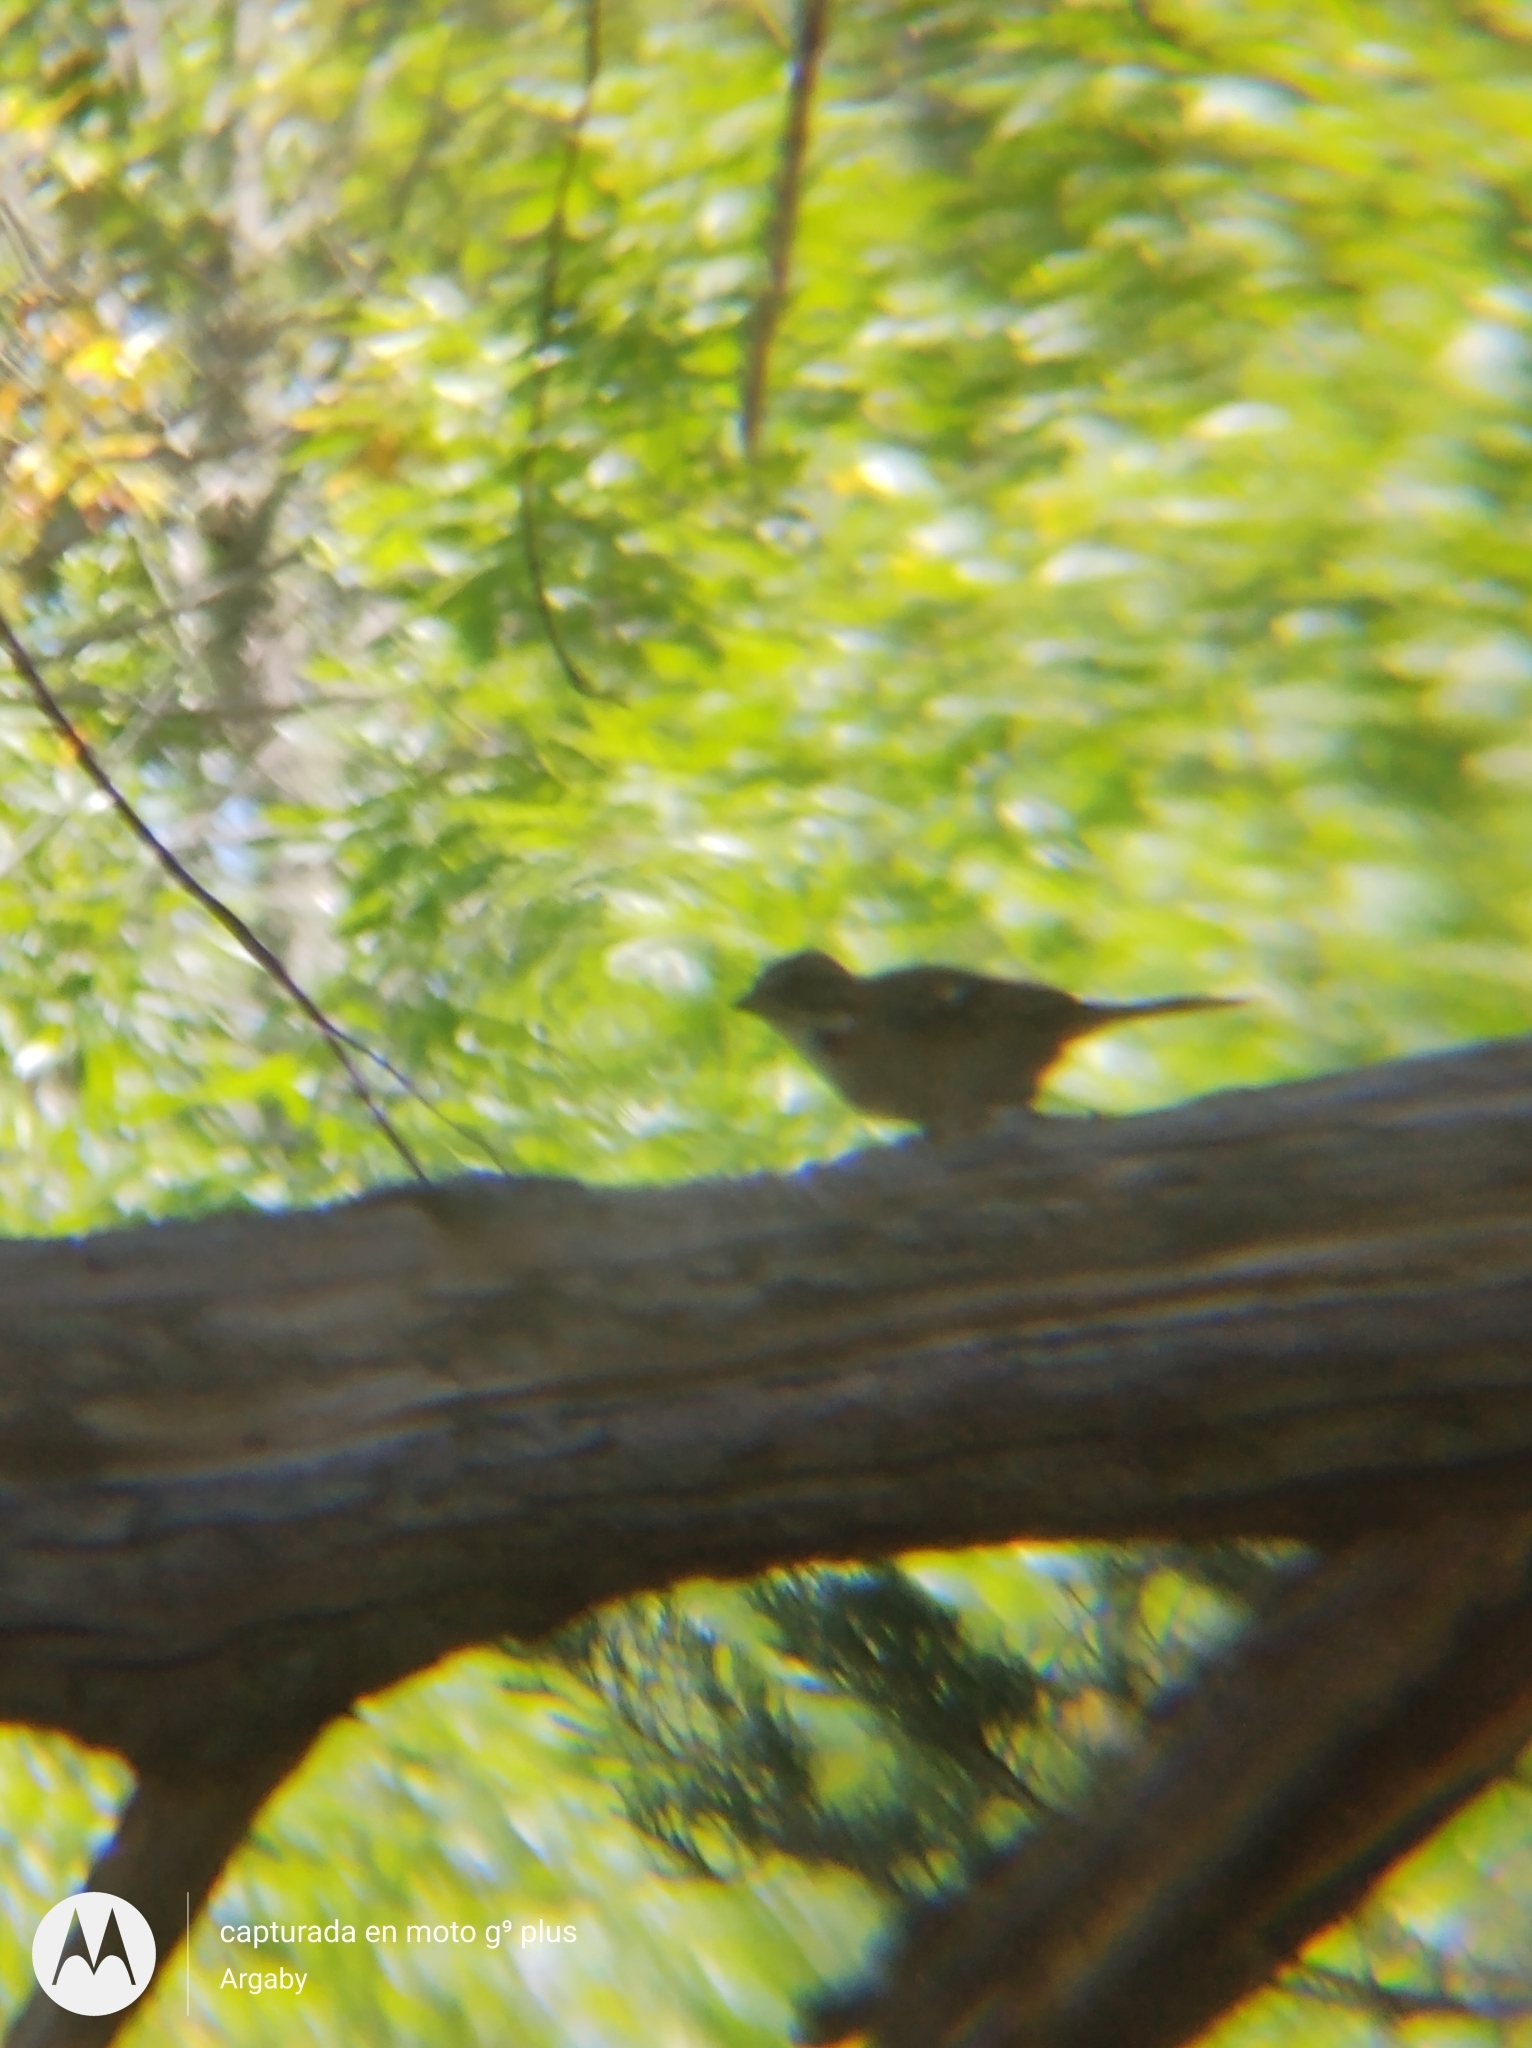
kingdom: Animalia
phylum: Chordata
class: Aves
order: Passeriformes
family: Passerellidae
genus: Zonotrichia
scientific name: Zonotrichia capensis
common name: Rufous-collared sparrow
